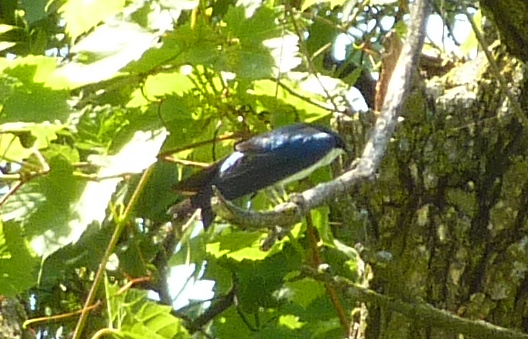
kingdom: Animalia
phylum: Chordata
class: Aves
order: Passeriformes
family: Hirundinidae
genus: Tachycineta
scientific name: Tachycineta bicolor
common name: Tree swallow
